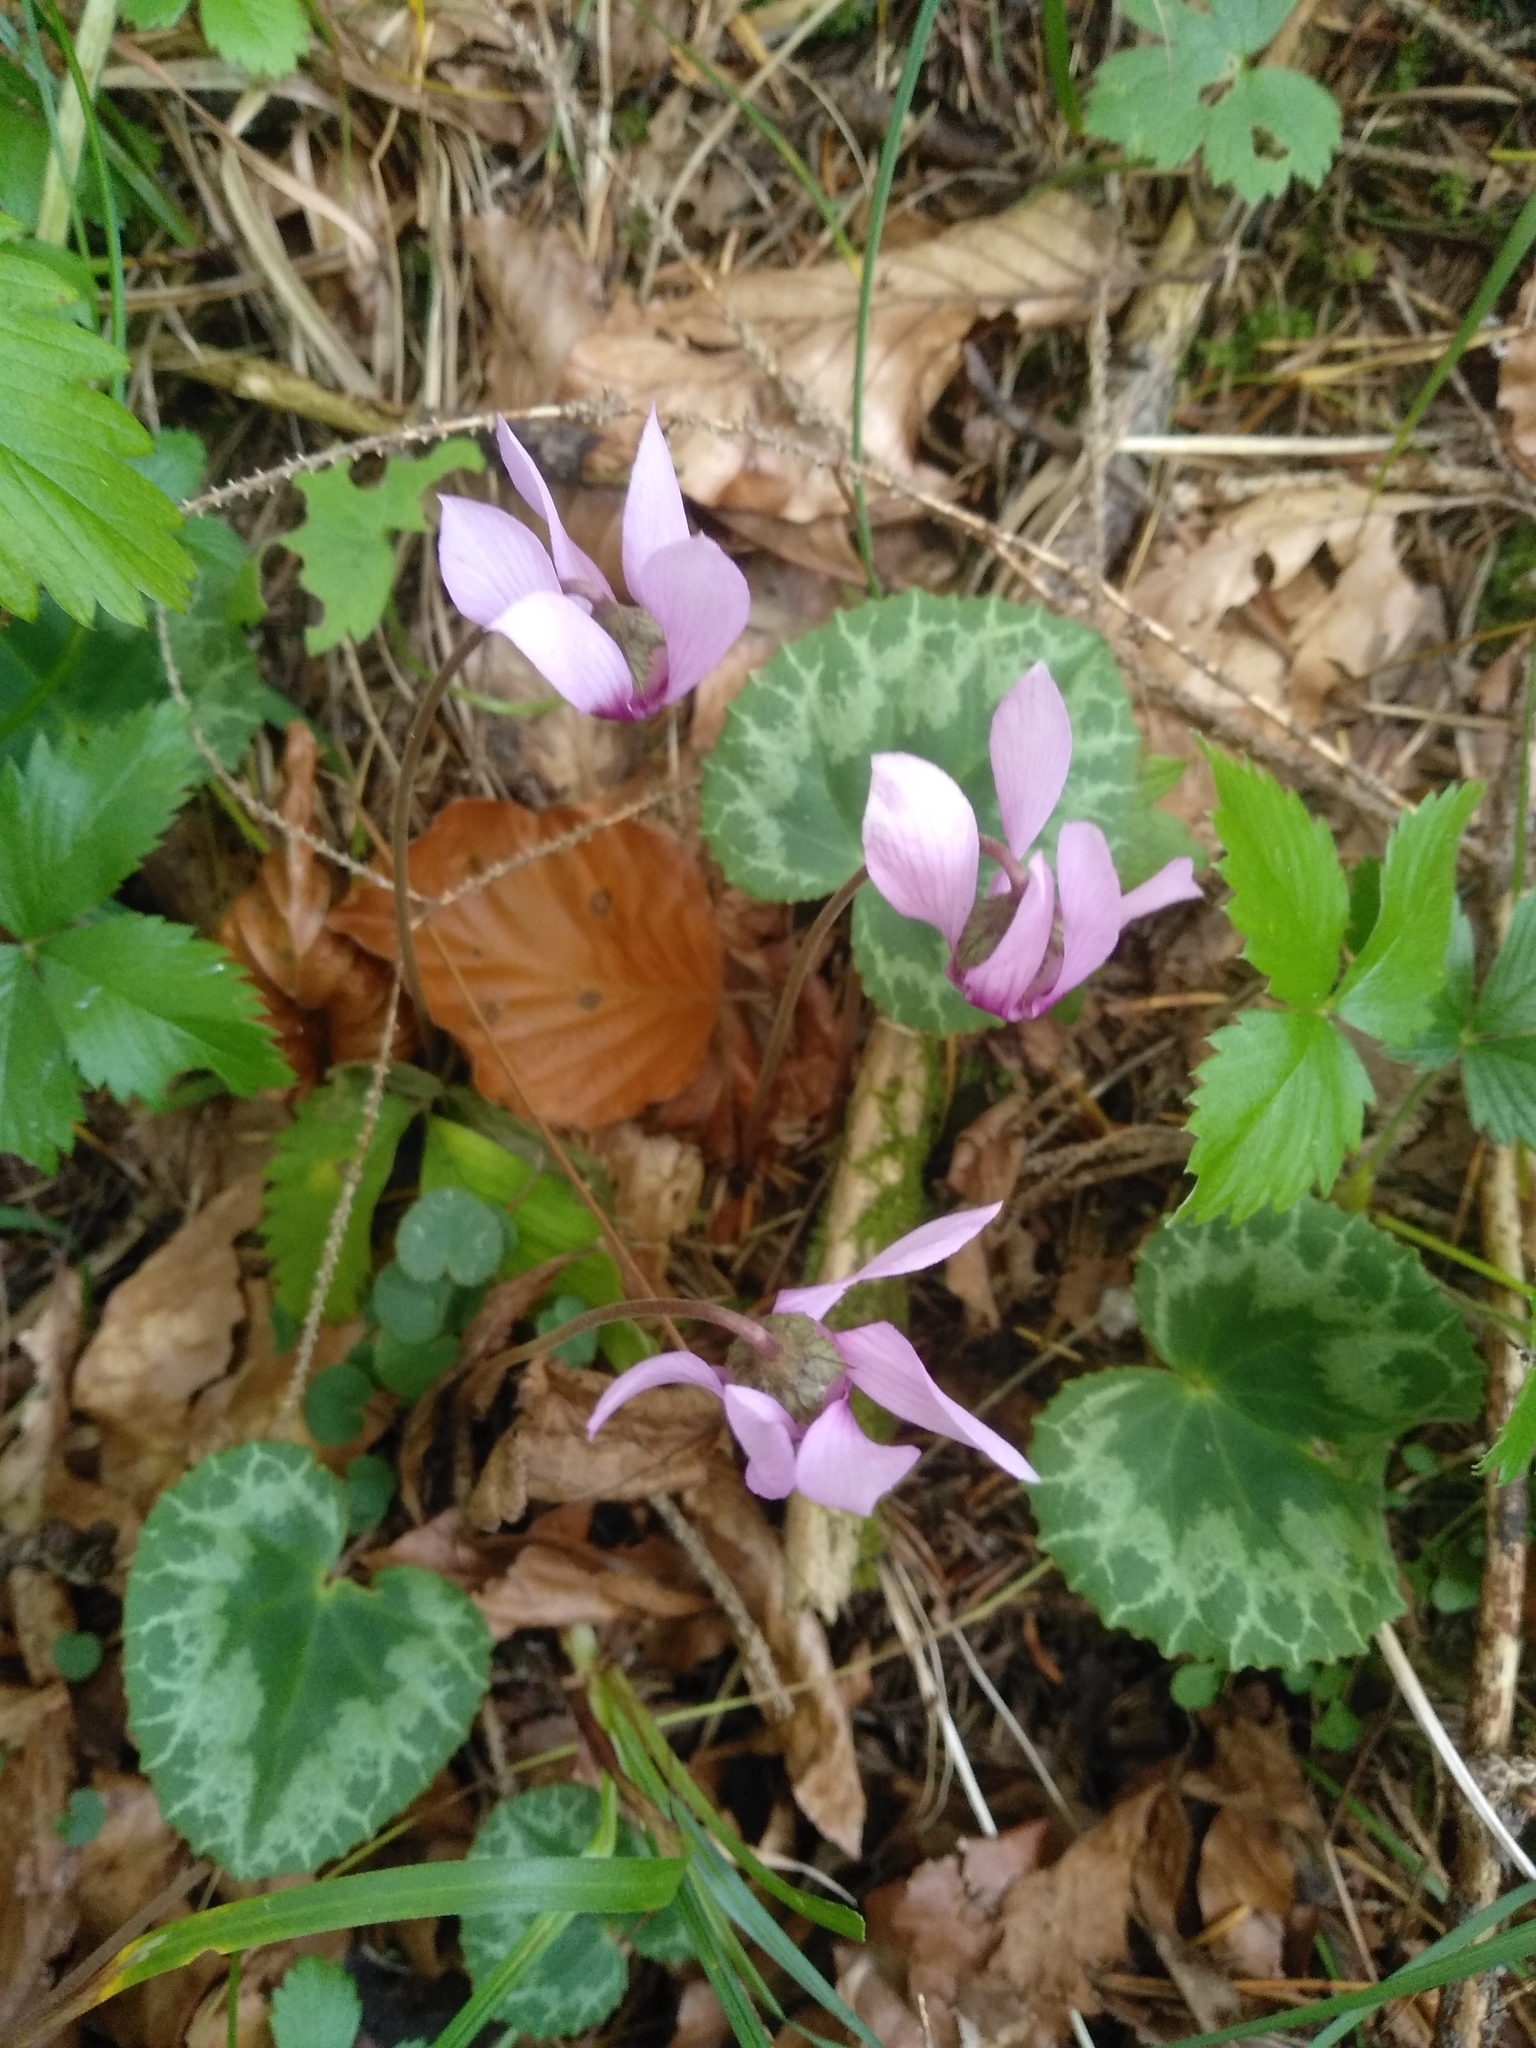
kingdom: Plantae
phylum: Tracheophyta
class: Magnoliopsida
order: Ericales
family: Primulaceae
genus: Cyclamen
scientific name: Cyclamen purpurascens
